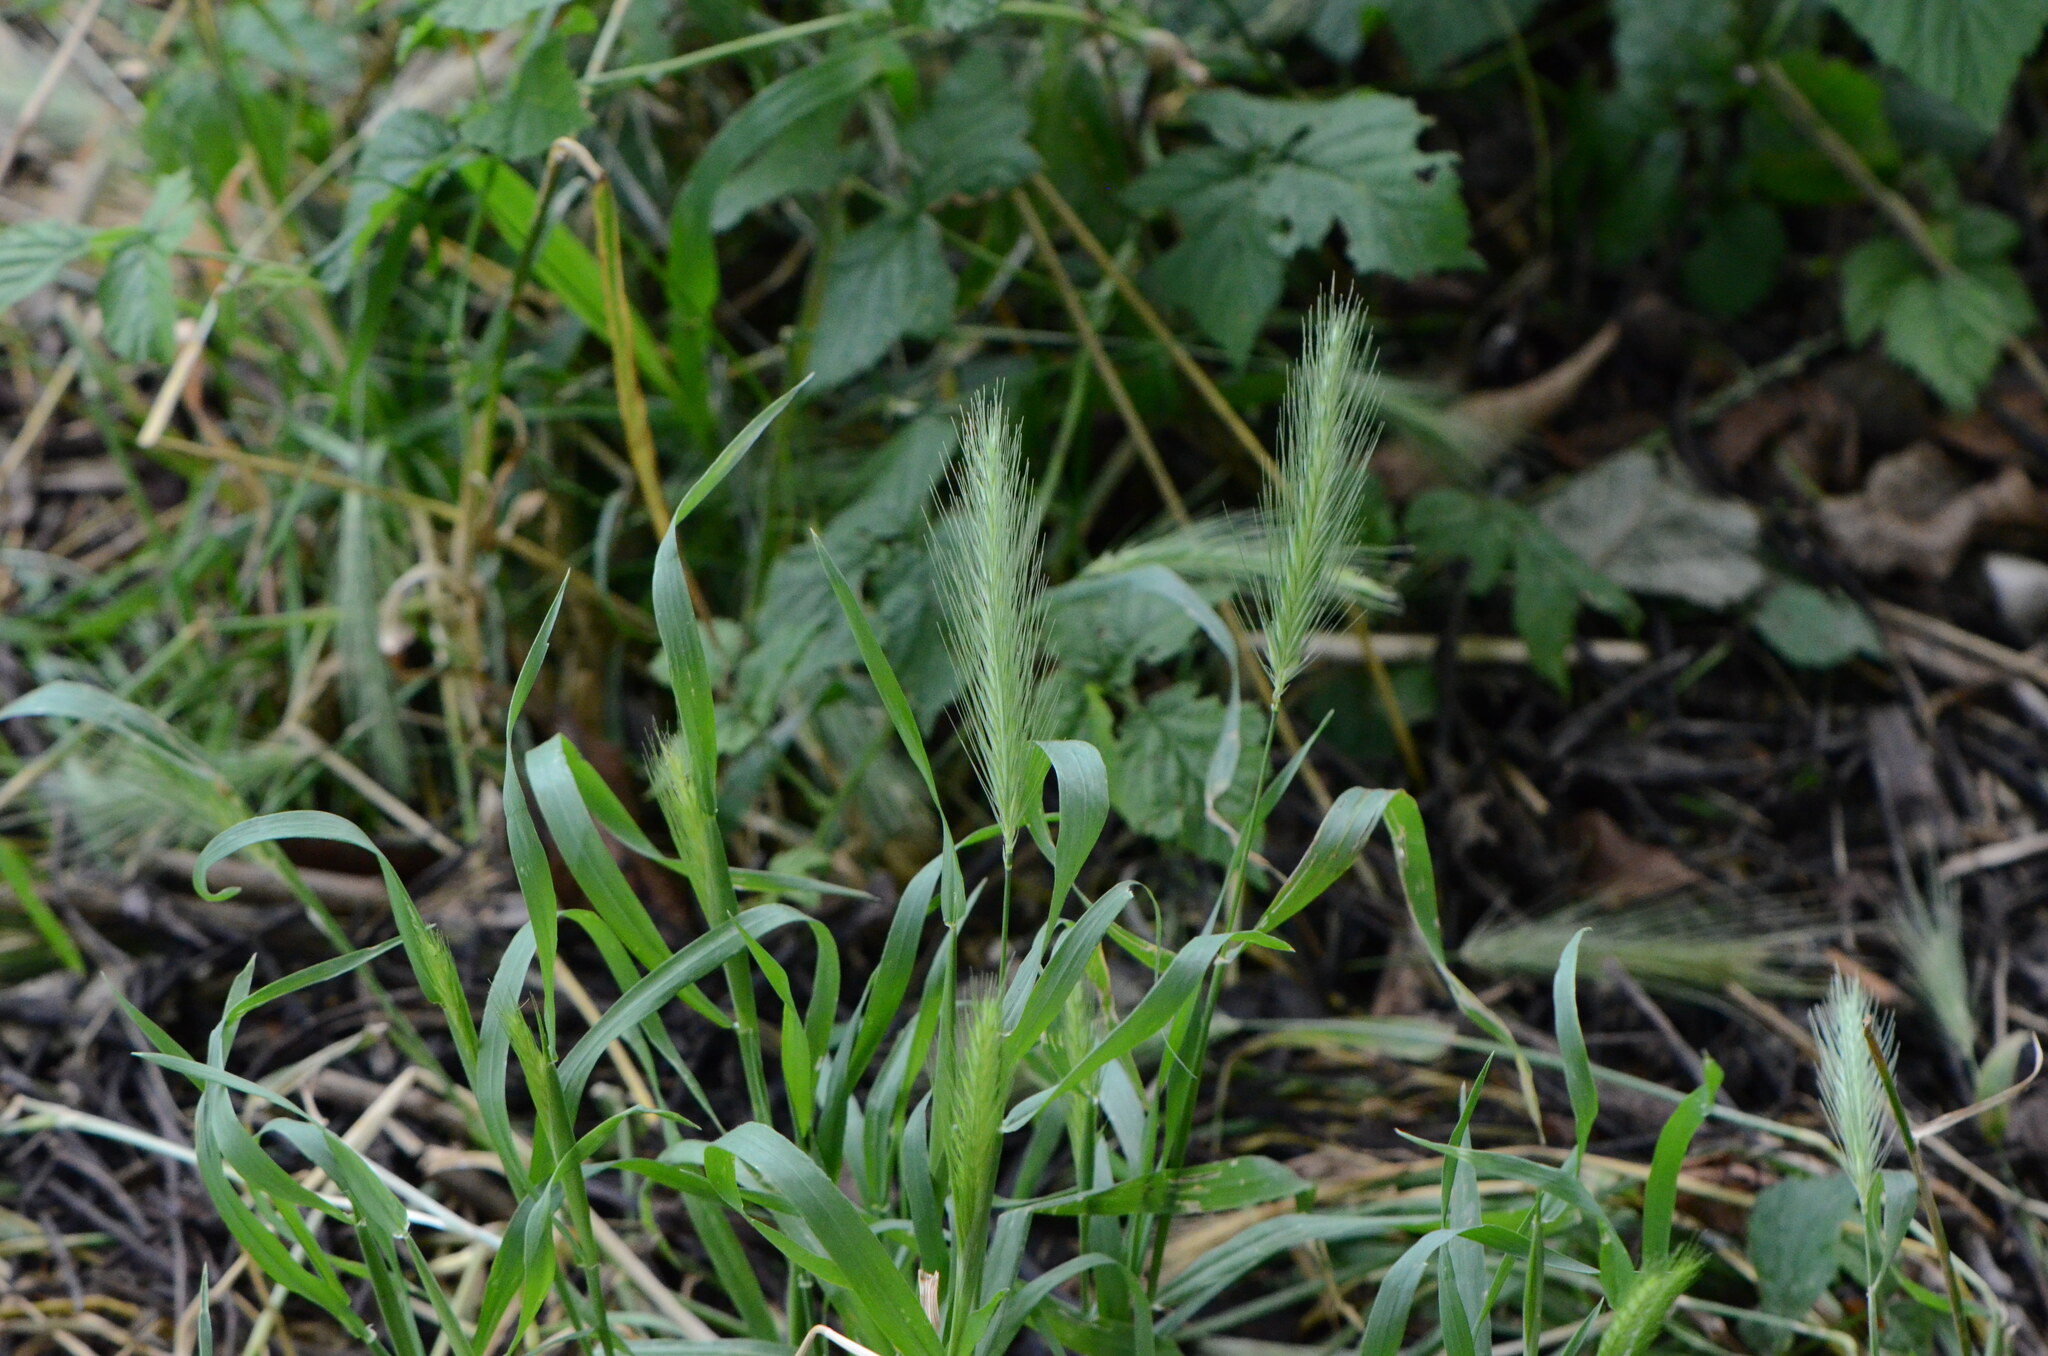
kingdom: Plantae
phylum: Tracheophyta
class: Liliopsida
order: Poales
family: Poaceae
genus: Hordeum
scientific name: Hordeum murinum
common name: Wall barley
